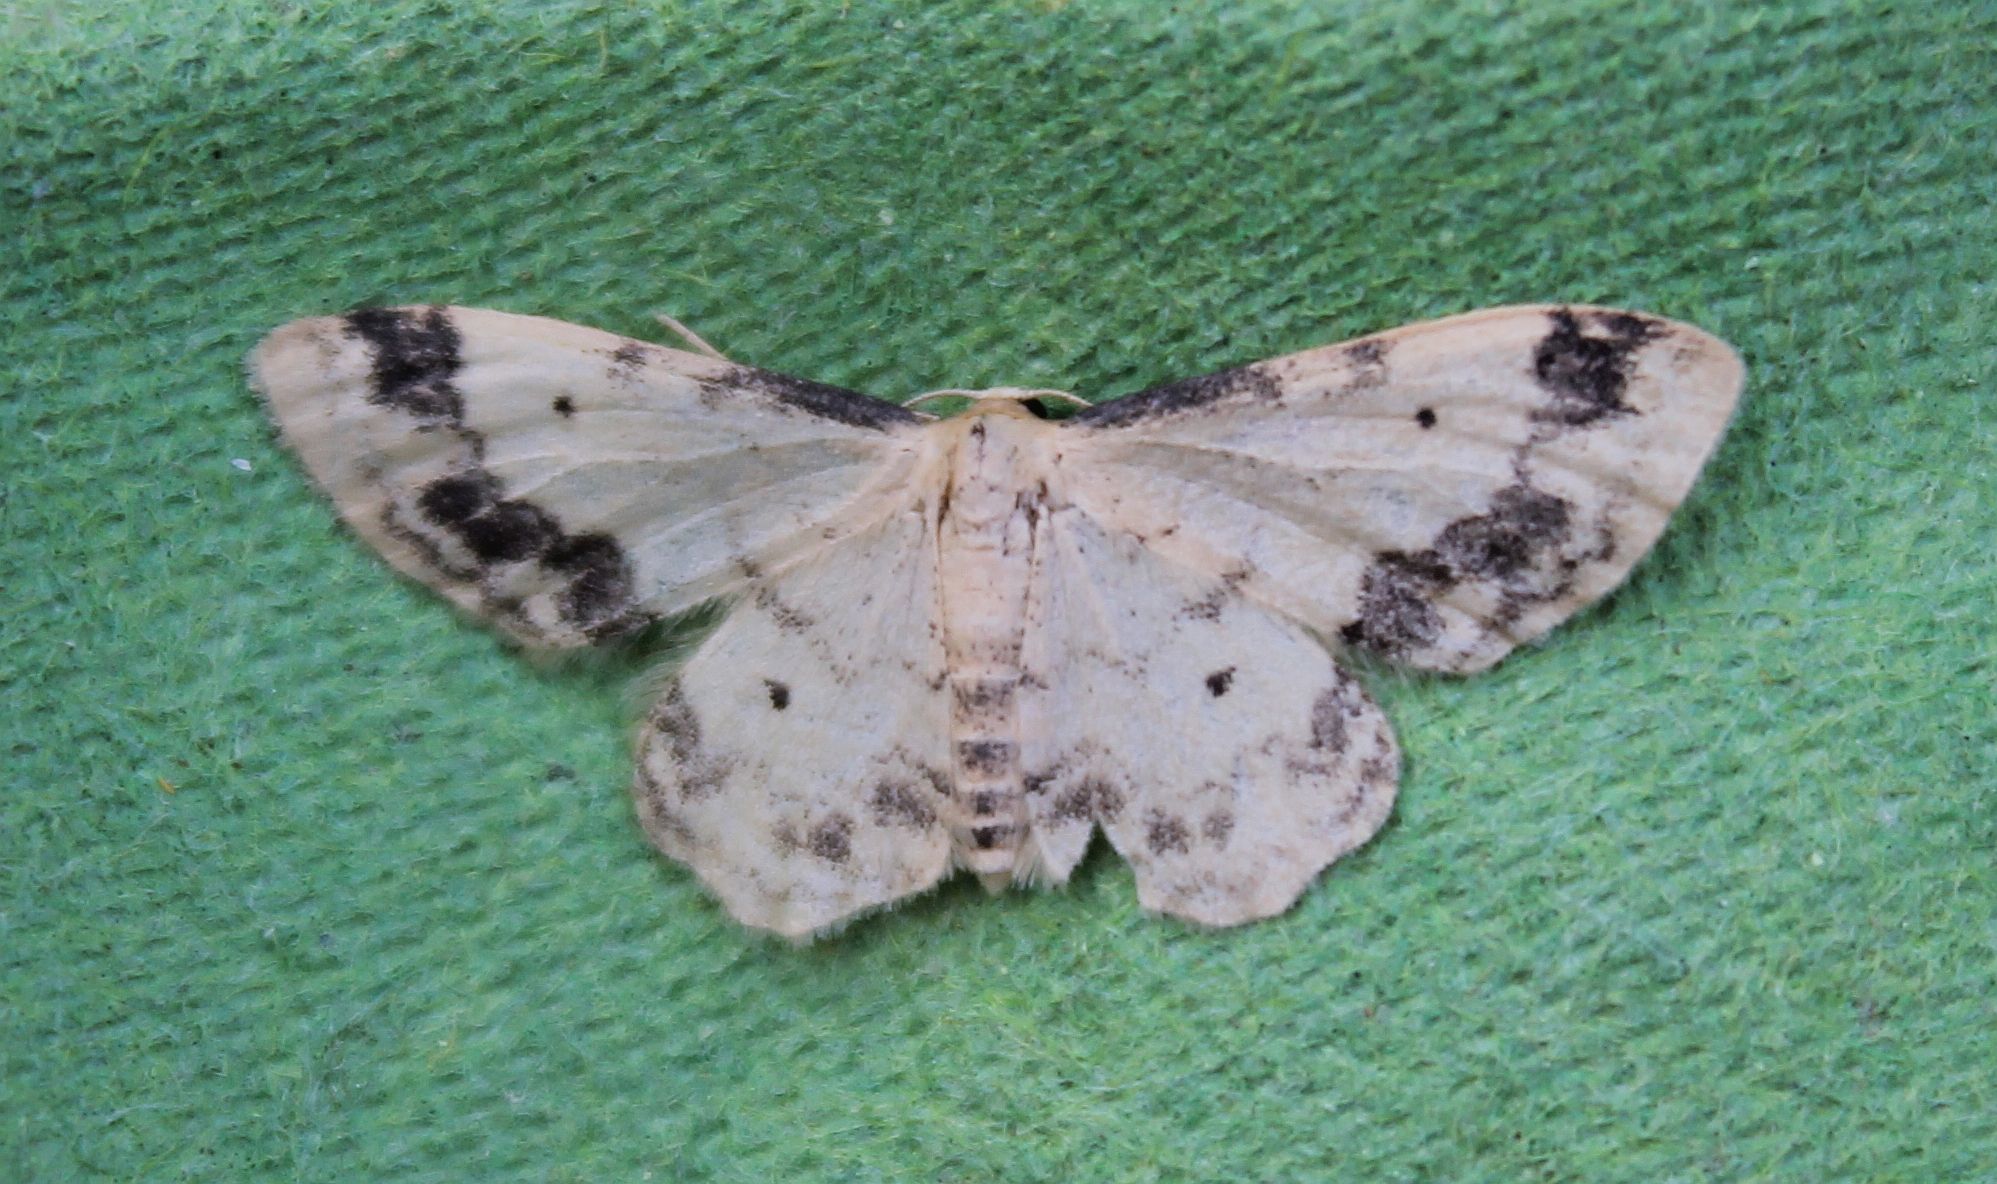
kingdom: Animalia
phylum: Arthropoda
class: Insecta
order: Lepidoptera
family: Geometridae
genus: Idaea
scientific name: Idaea trigeminata
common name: Treble brown spot
